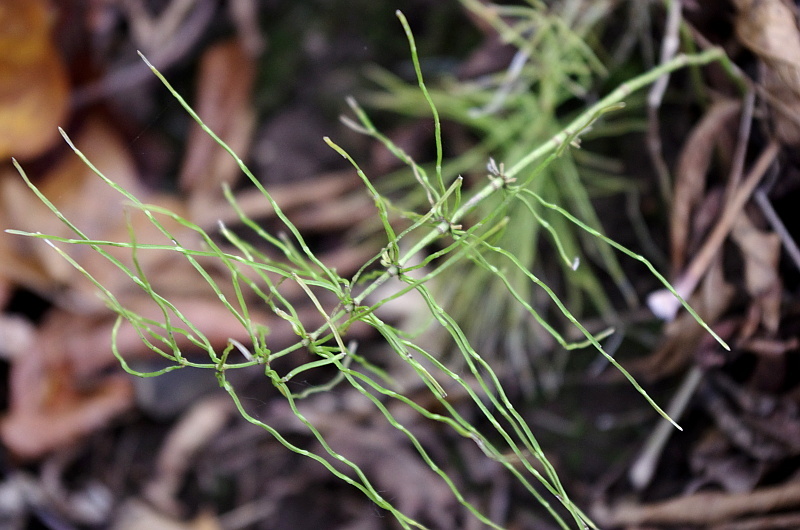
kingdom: Plantae
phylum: Tracheophyta
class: Polypodiopsida
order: Equisetales
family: Equisetaceae
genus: Equisetum
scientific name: Equisetum pratense
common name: Meadow horsetail
